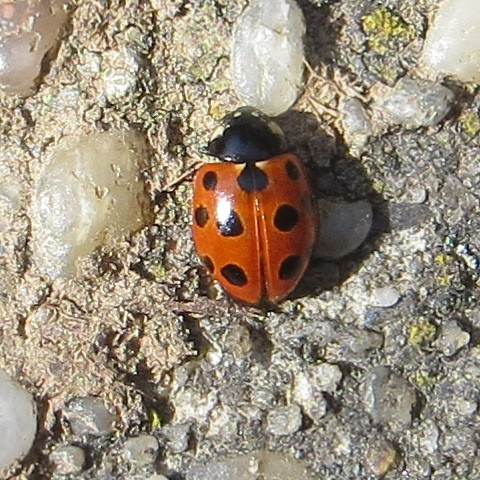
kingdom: Animalia
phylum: Arthropoda
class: Insecta
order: Coleoptera
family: Coccinellidae
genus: Coccinella
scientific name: Coccinella undecimpunctata
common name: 11-spot ladybird
